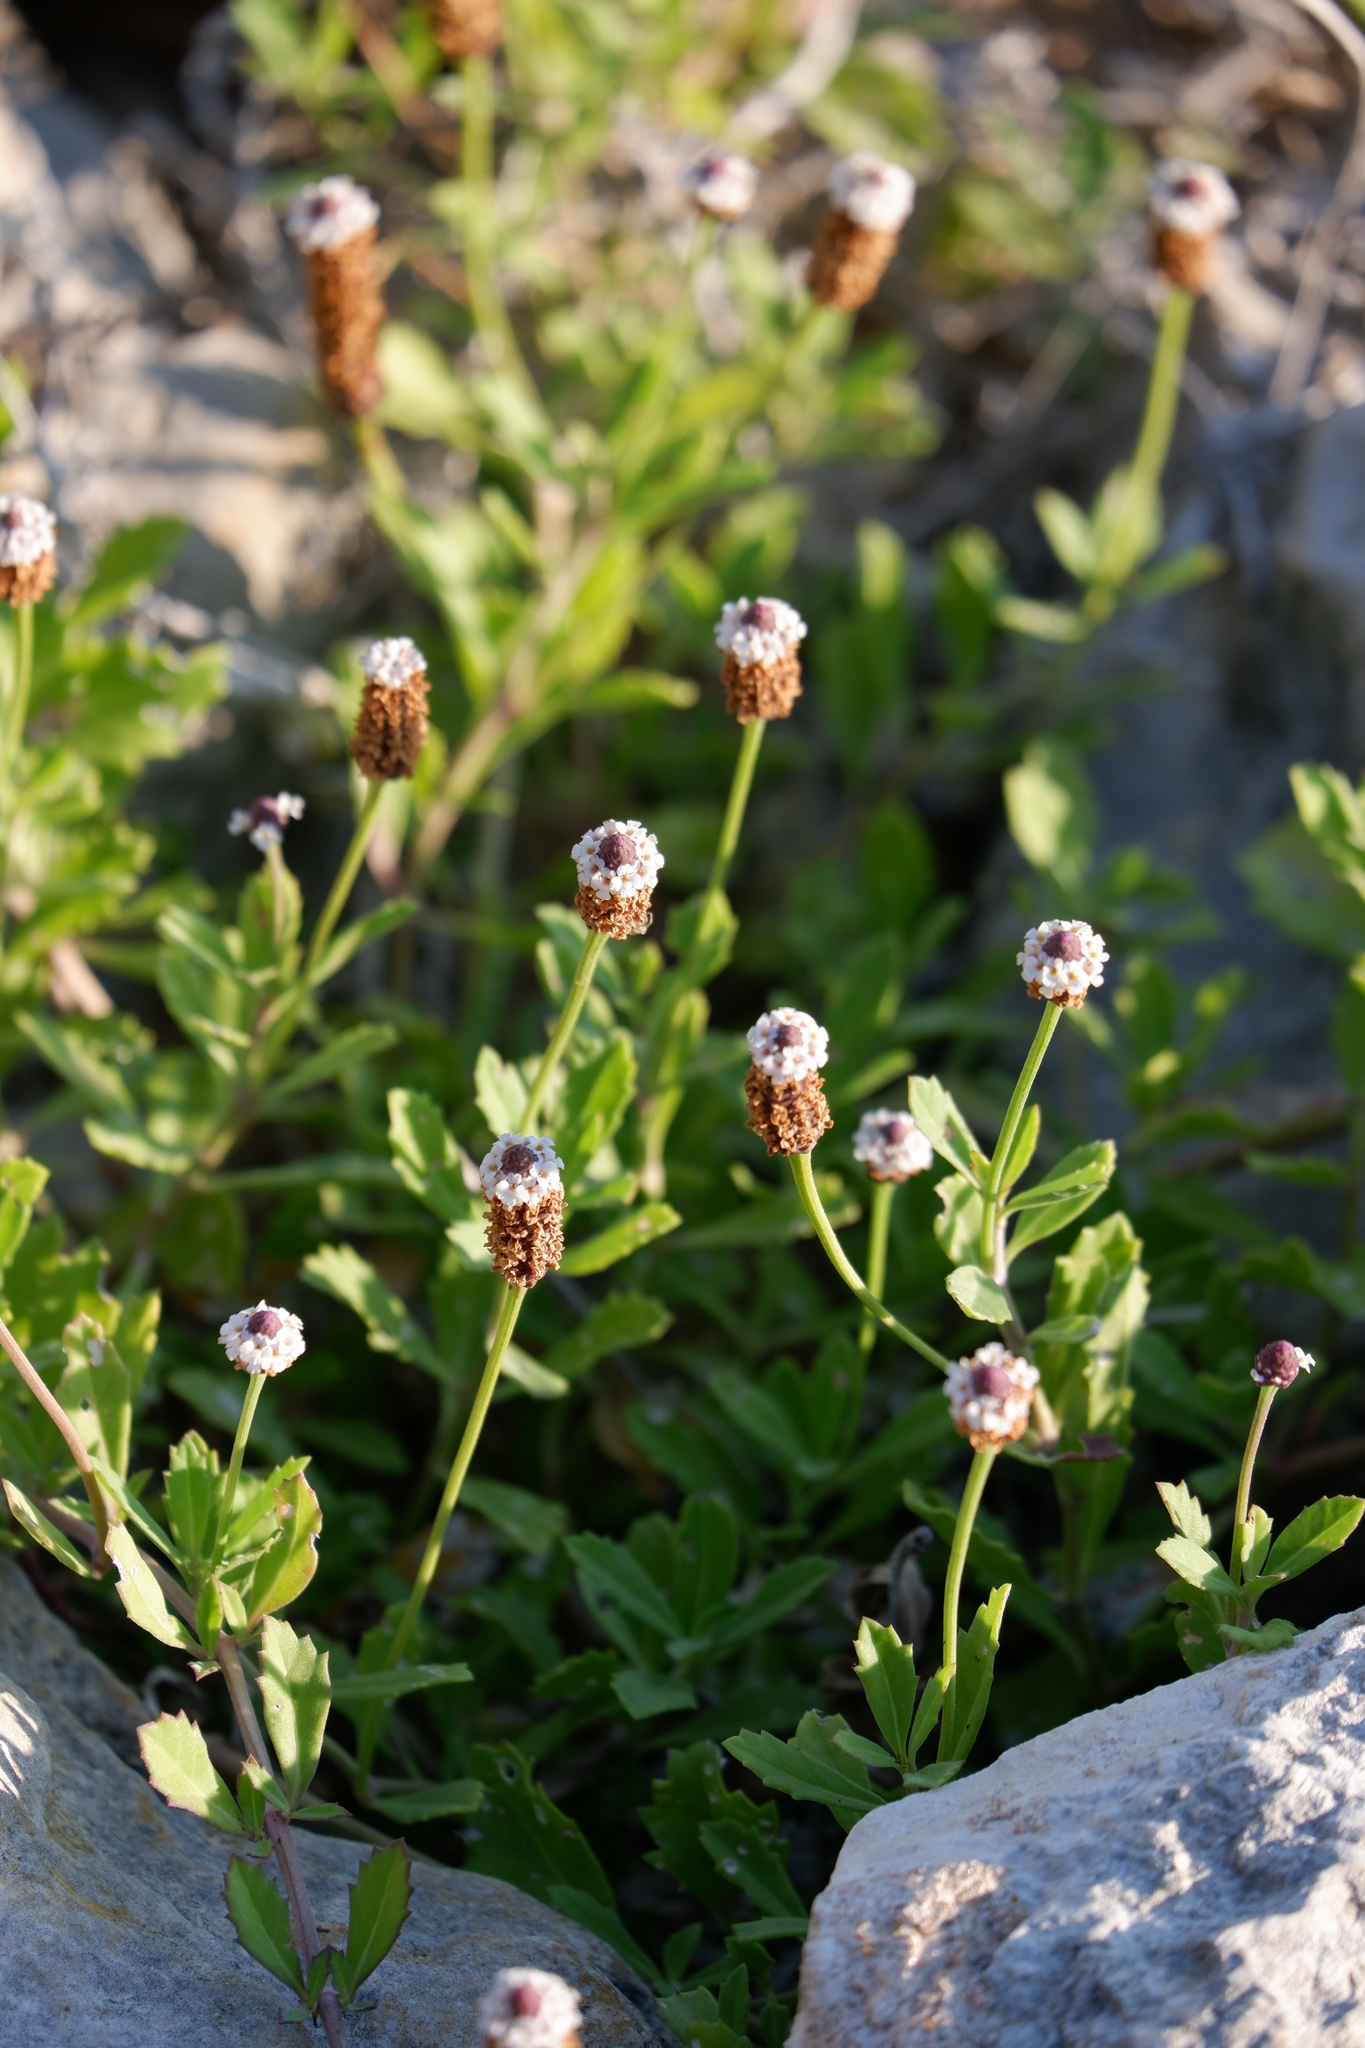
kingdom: Plantae
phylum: Tracheophyta
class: Magnoliopsida
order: Lamiales
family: Verbenaceae
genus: Phyla
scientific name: Phyla nodiflora
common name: Frogfruit
